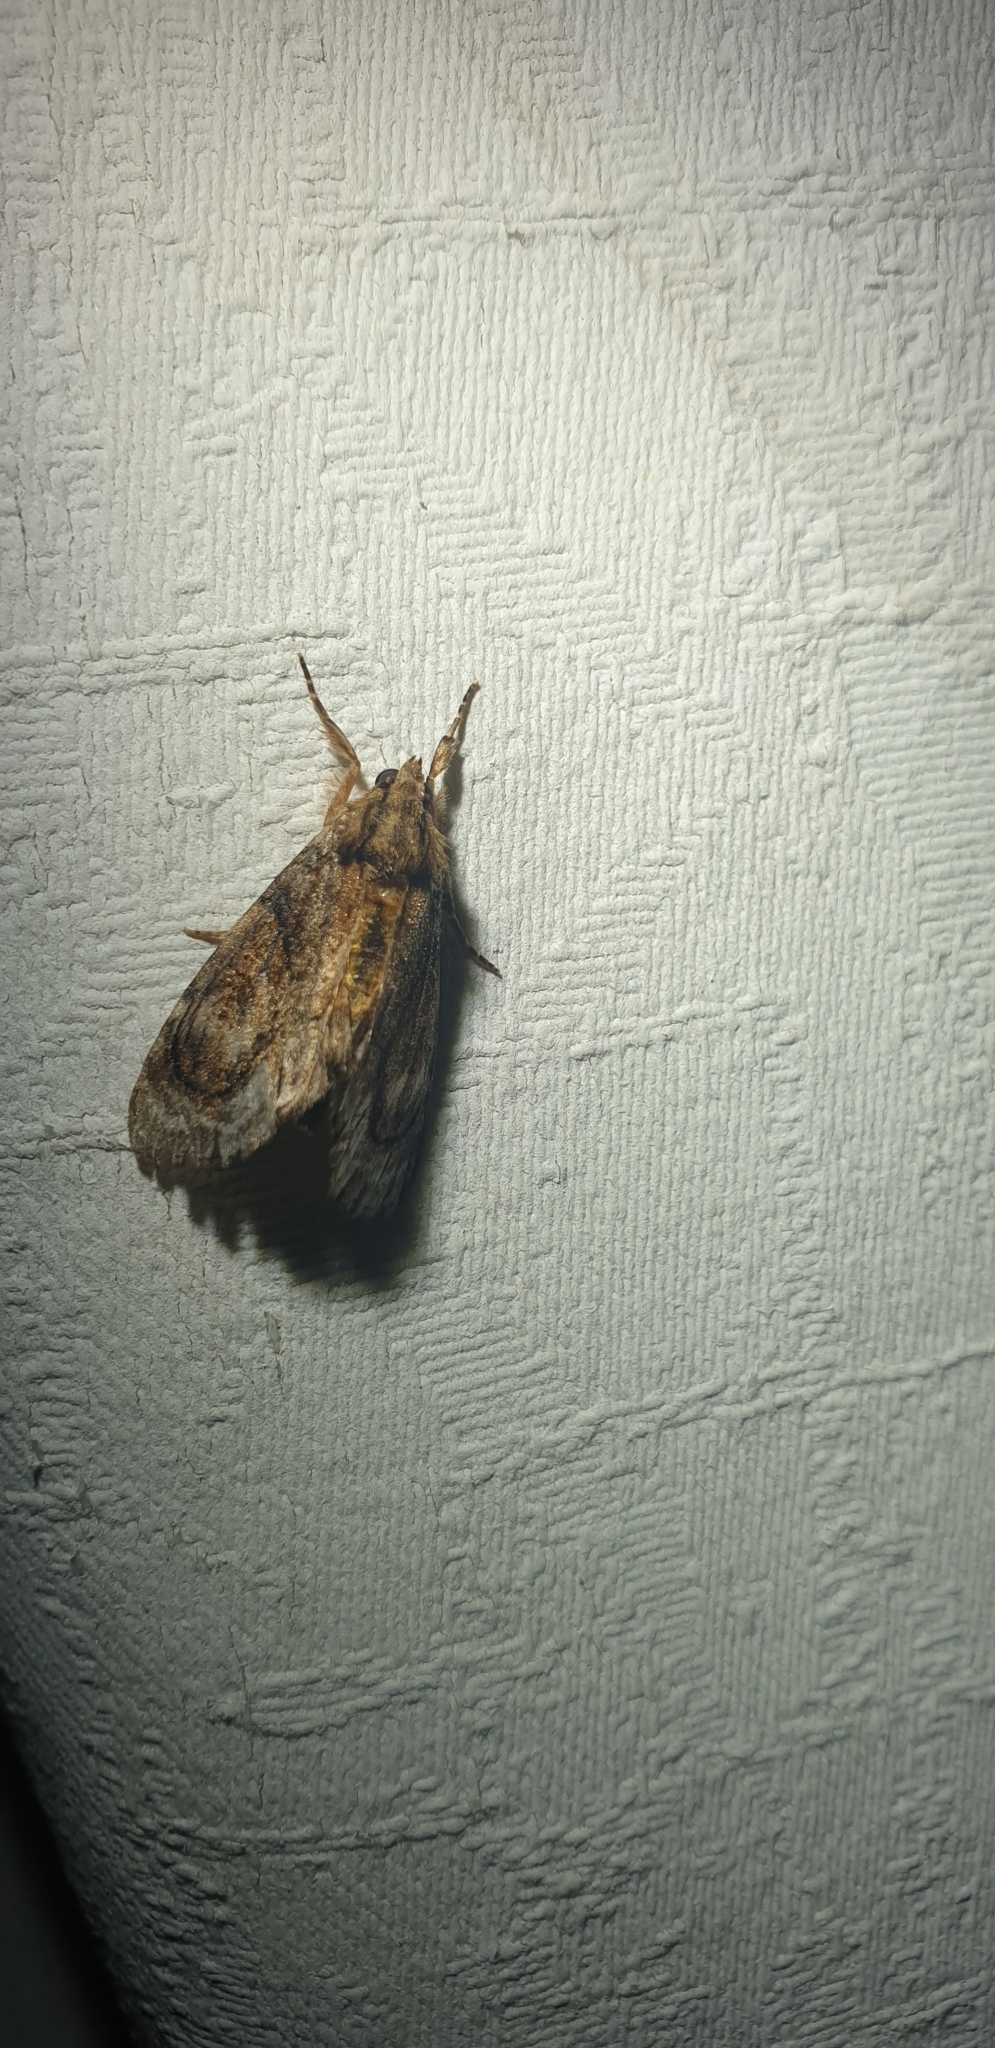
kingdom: Animalia
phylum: Arthropoda
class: Insecta
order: Lepidoptera
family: Noctuidae
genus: Zalissa
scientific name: Zalissa catocalina
